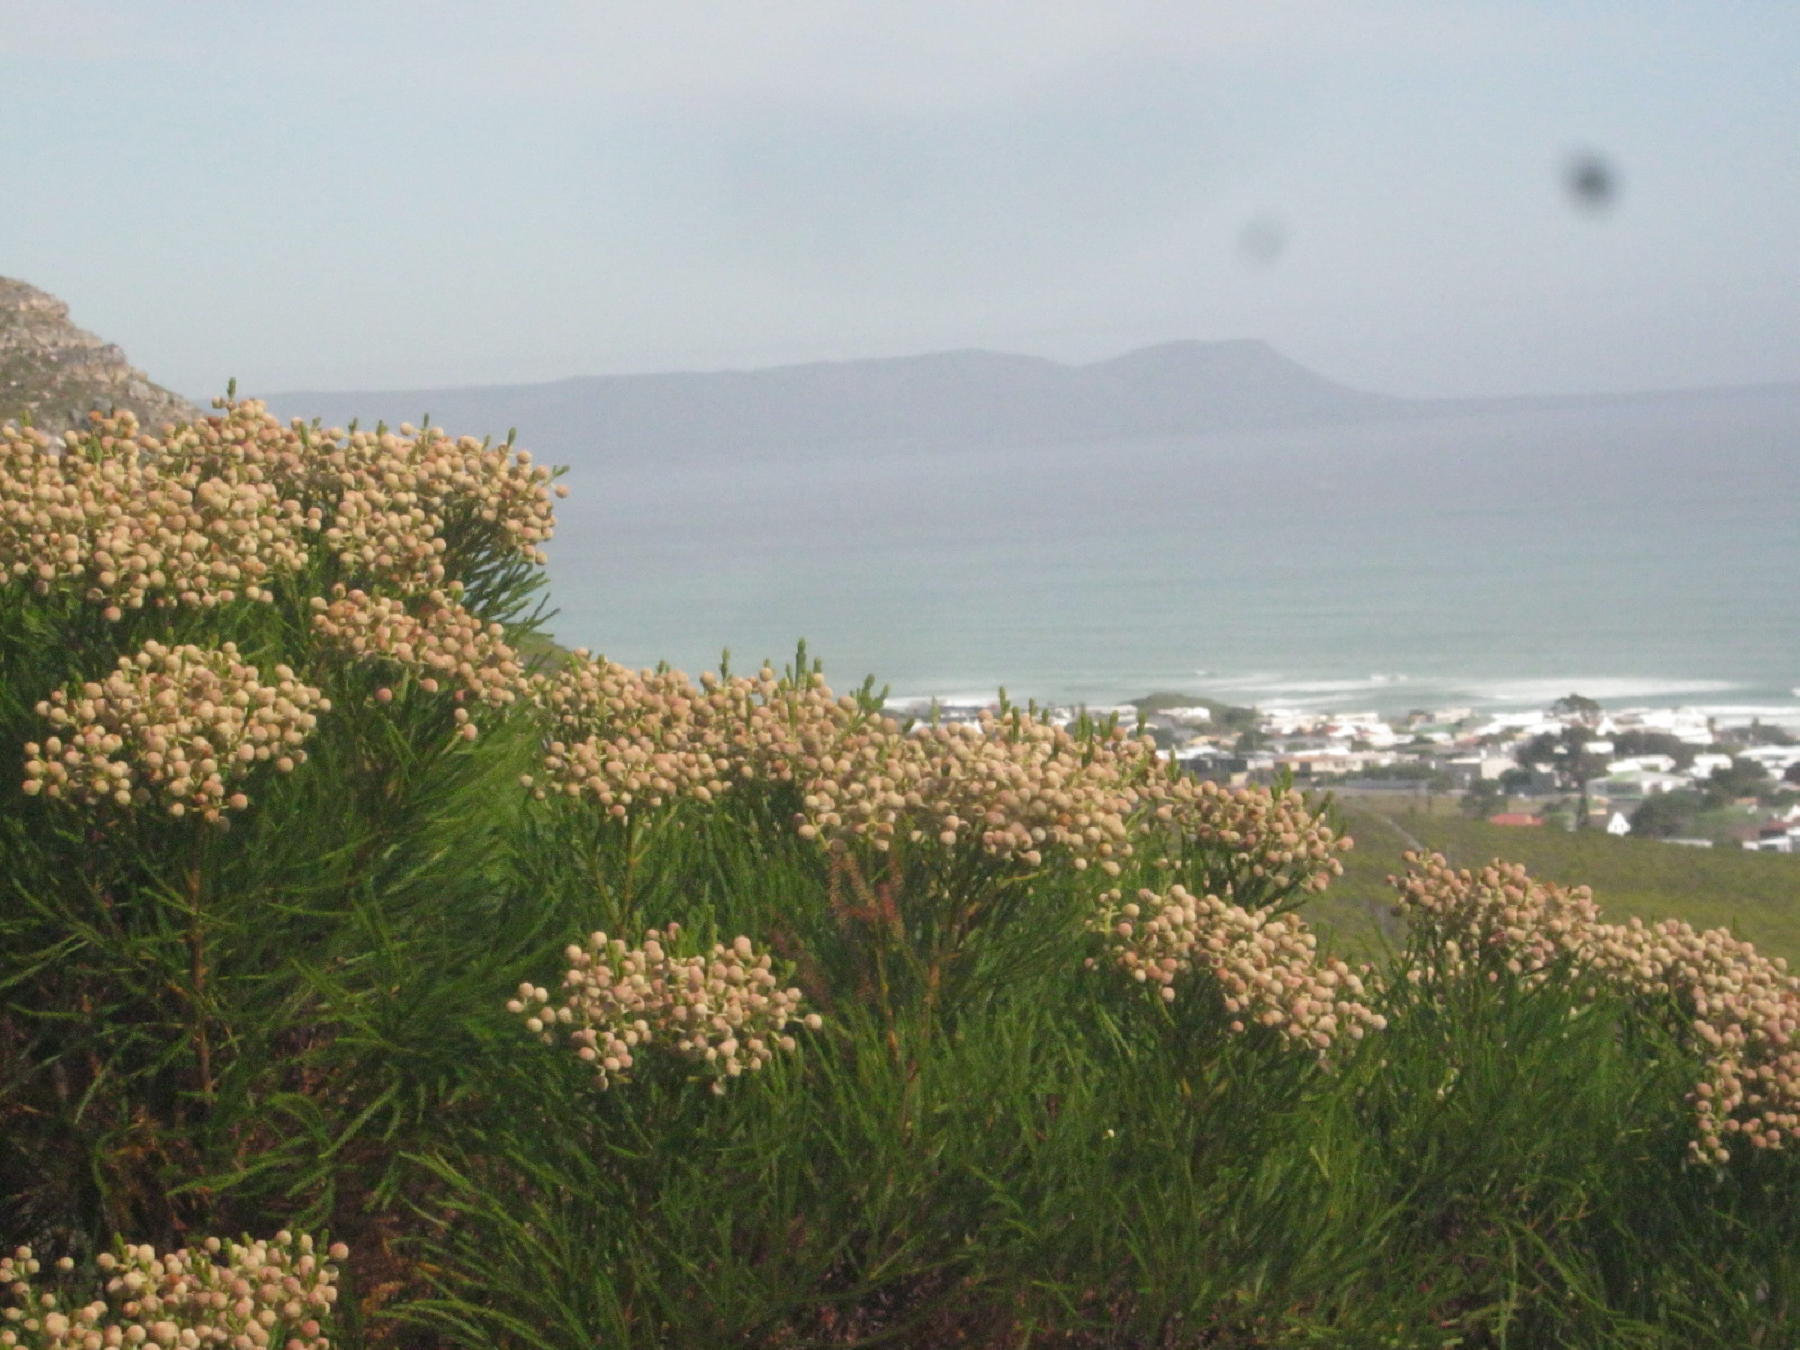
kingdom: Plantae
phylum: Tracheophyta
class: Magnoliopsida
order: Bruniales
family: Bruniaceae
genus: Berzelia
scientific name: Berzelia lanuginosa
